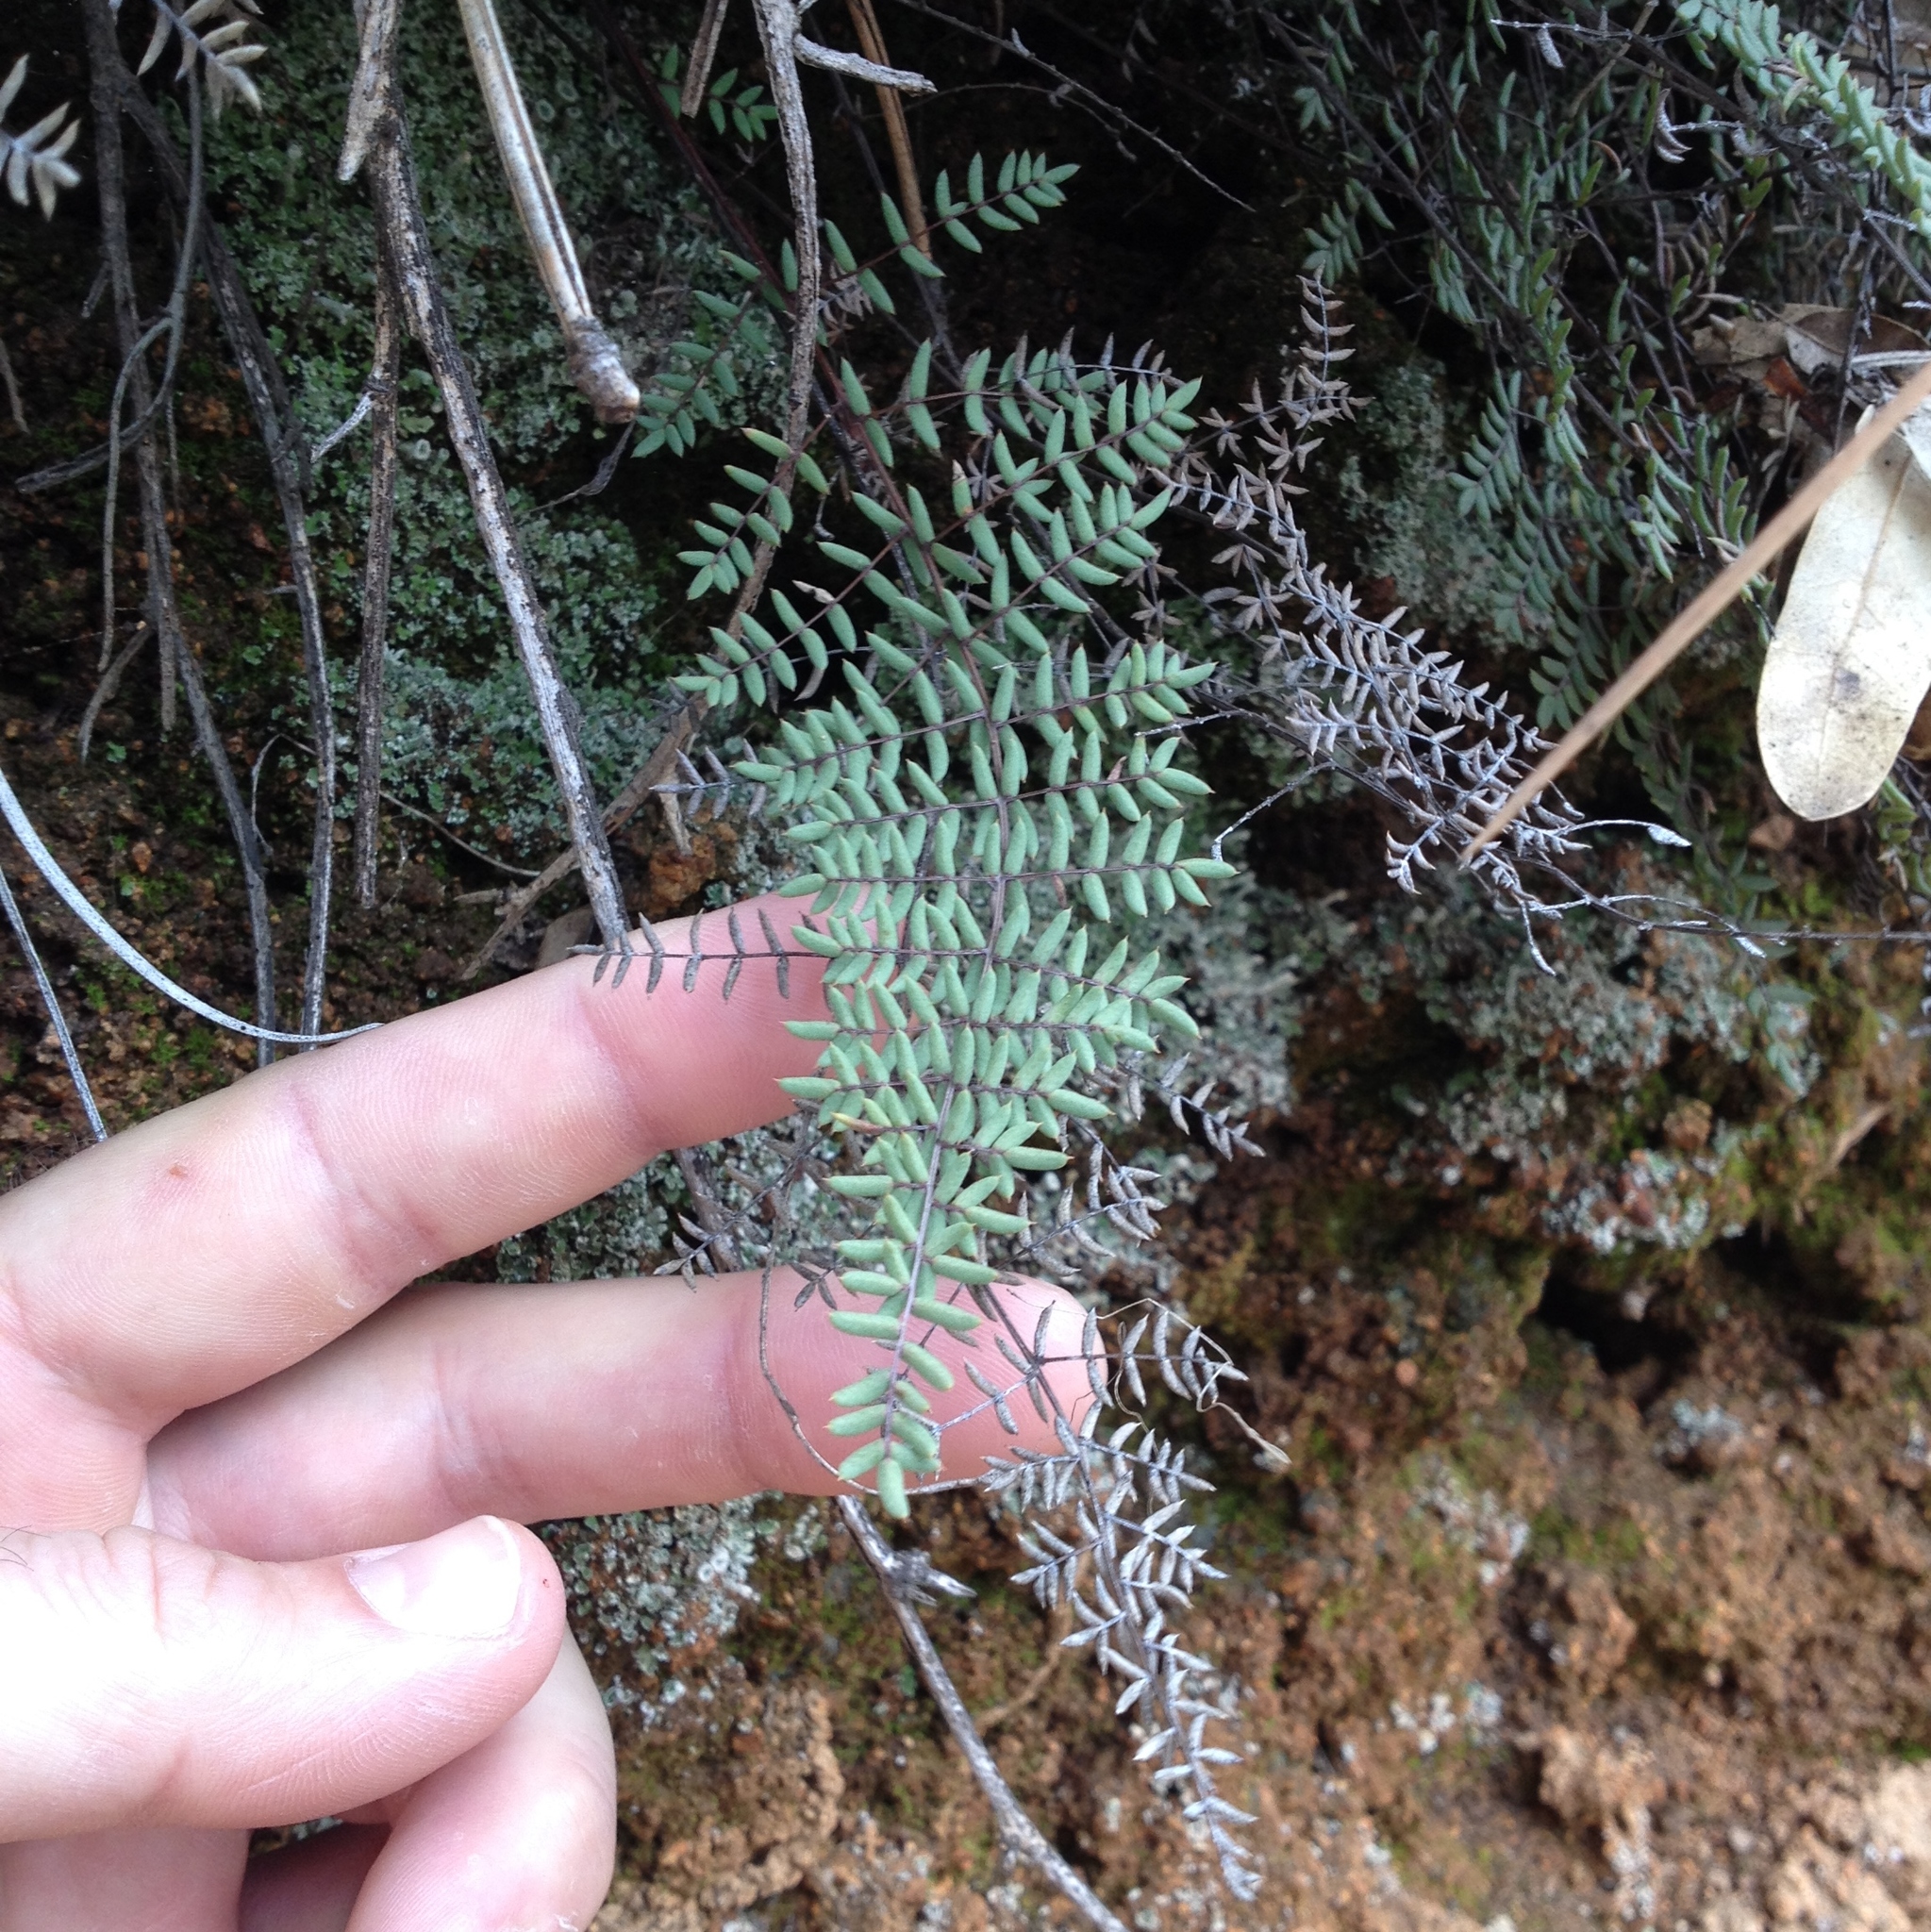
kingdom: Plantae
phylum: Tracheophyta
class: Polypodiopsida
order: Polypodiales
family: Pteridaceae
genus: Pellaea
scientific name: Pellaea mucronata
